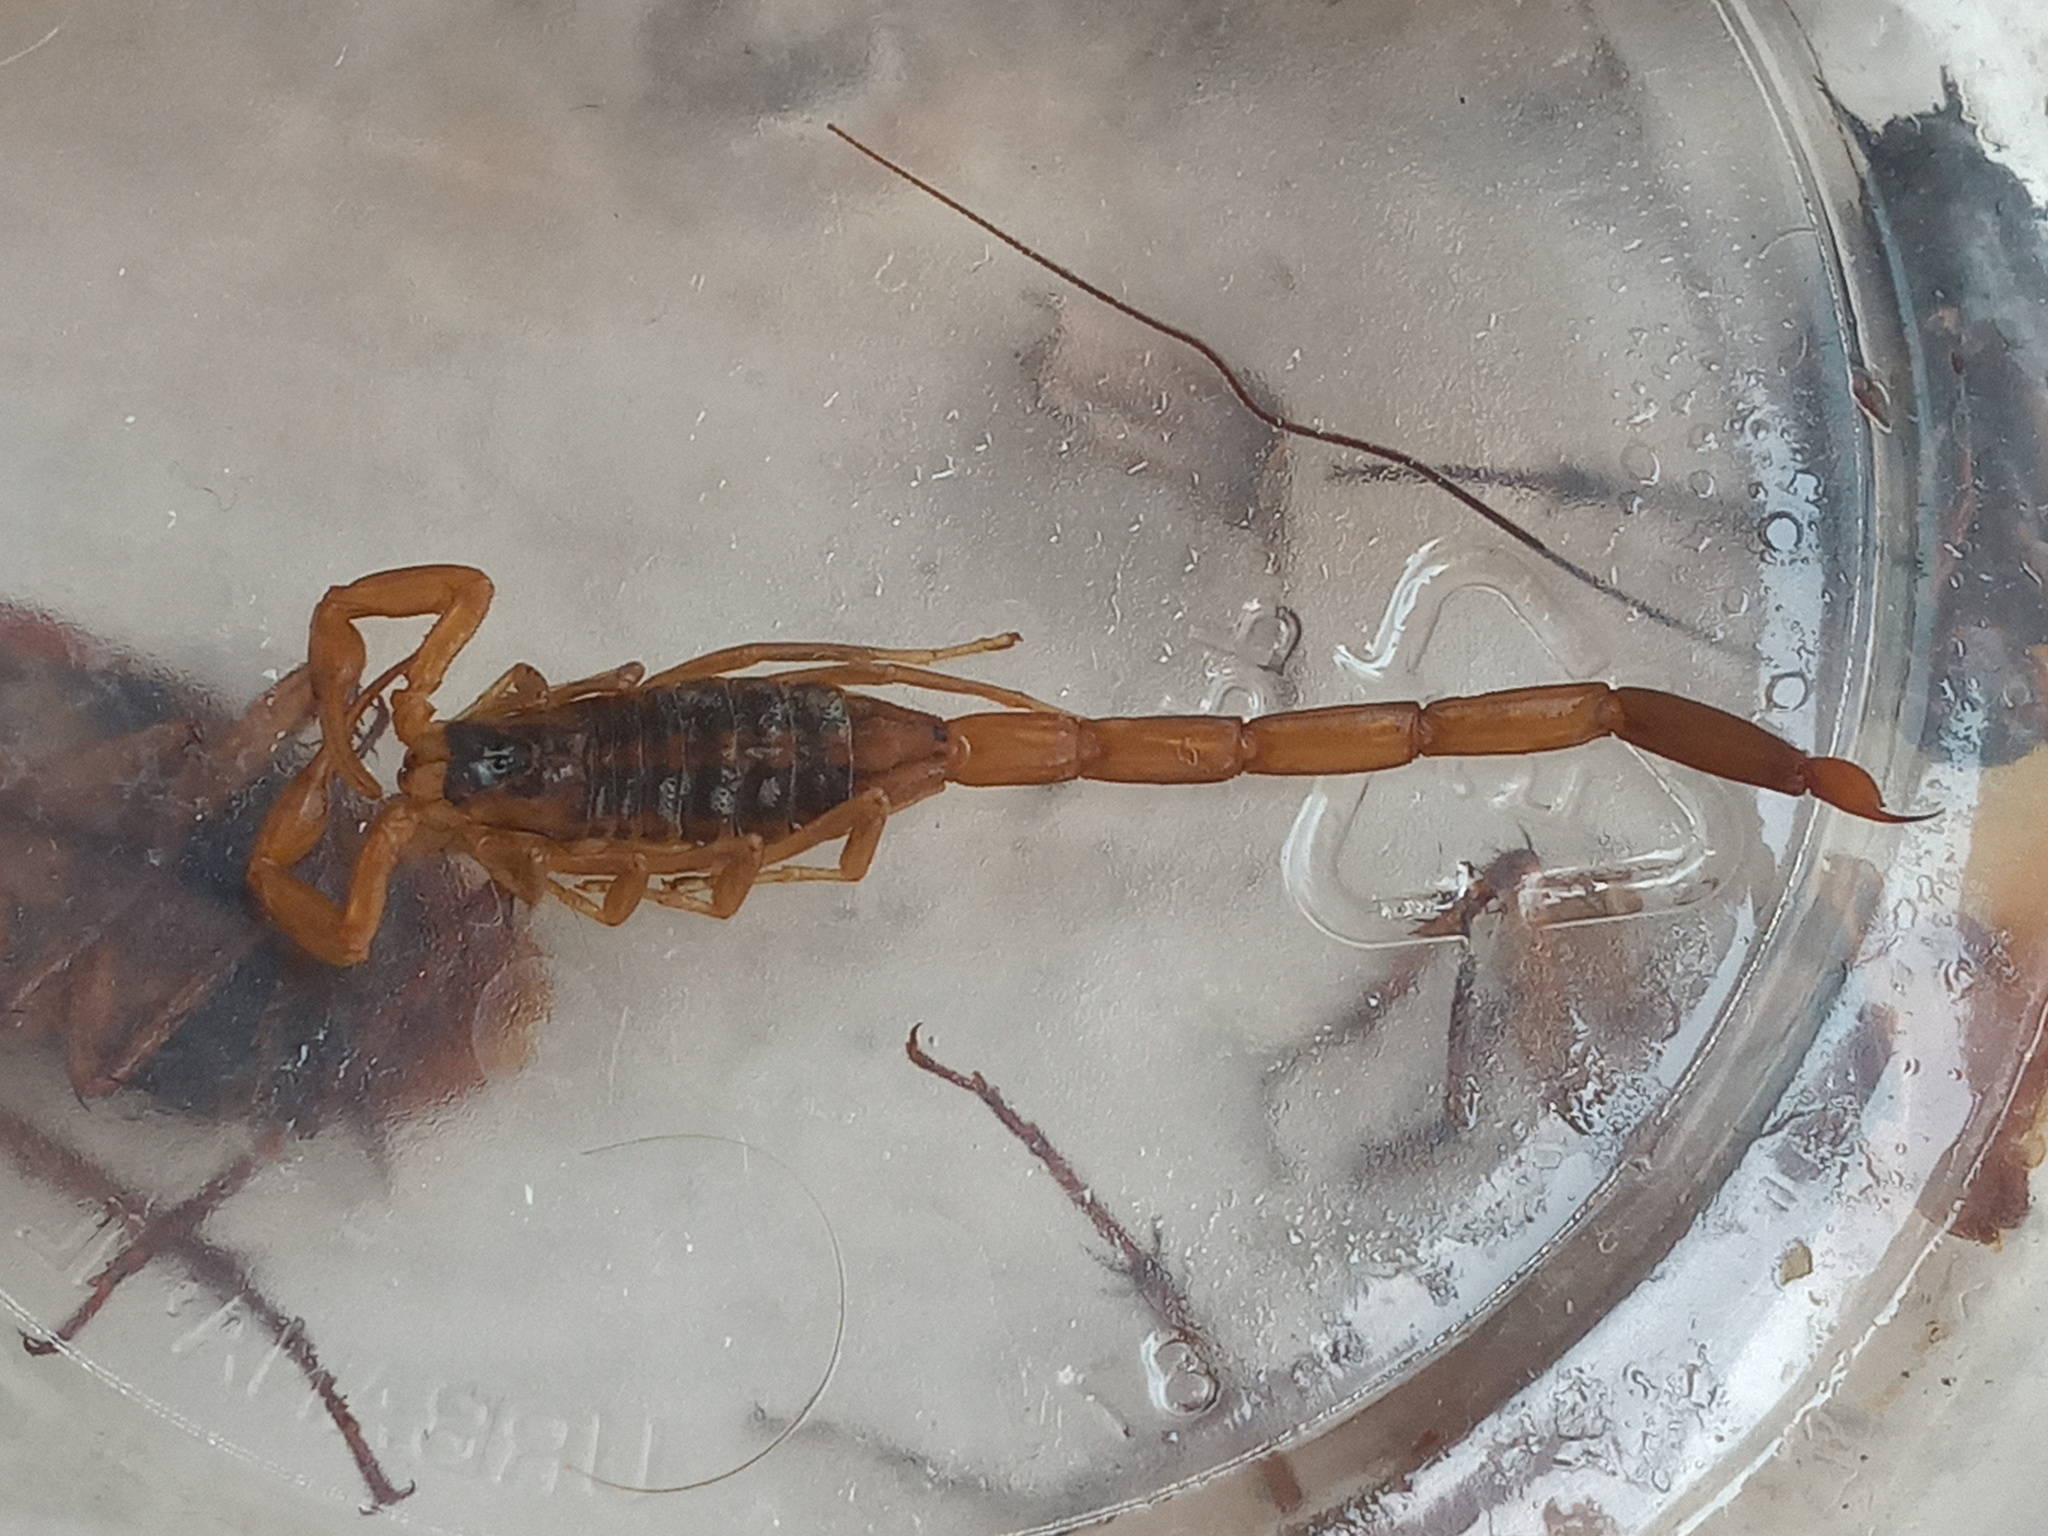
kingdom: Animalia
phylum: Arthropoda
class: Arachnida
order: Scorpiones
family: Buthidae
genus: Centruroides
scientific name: Centruroides vittatus
